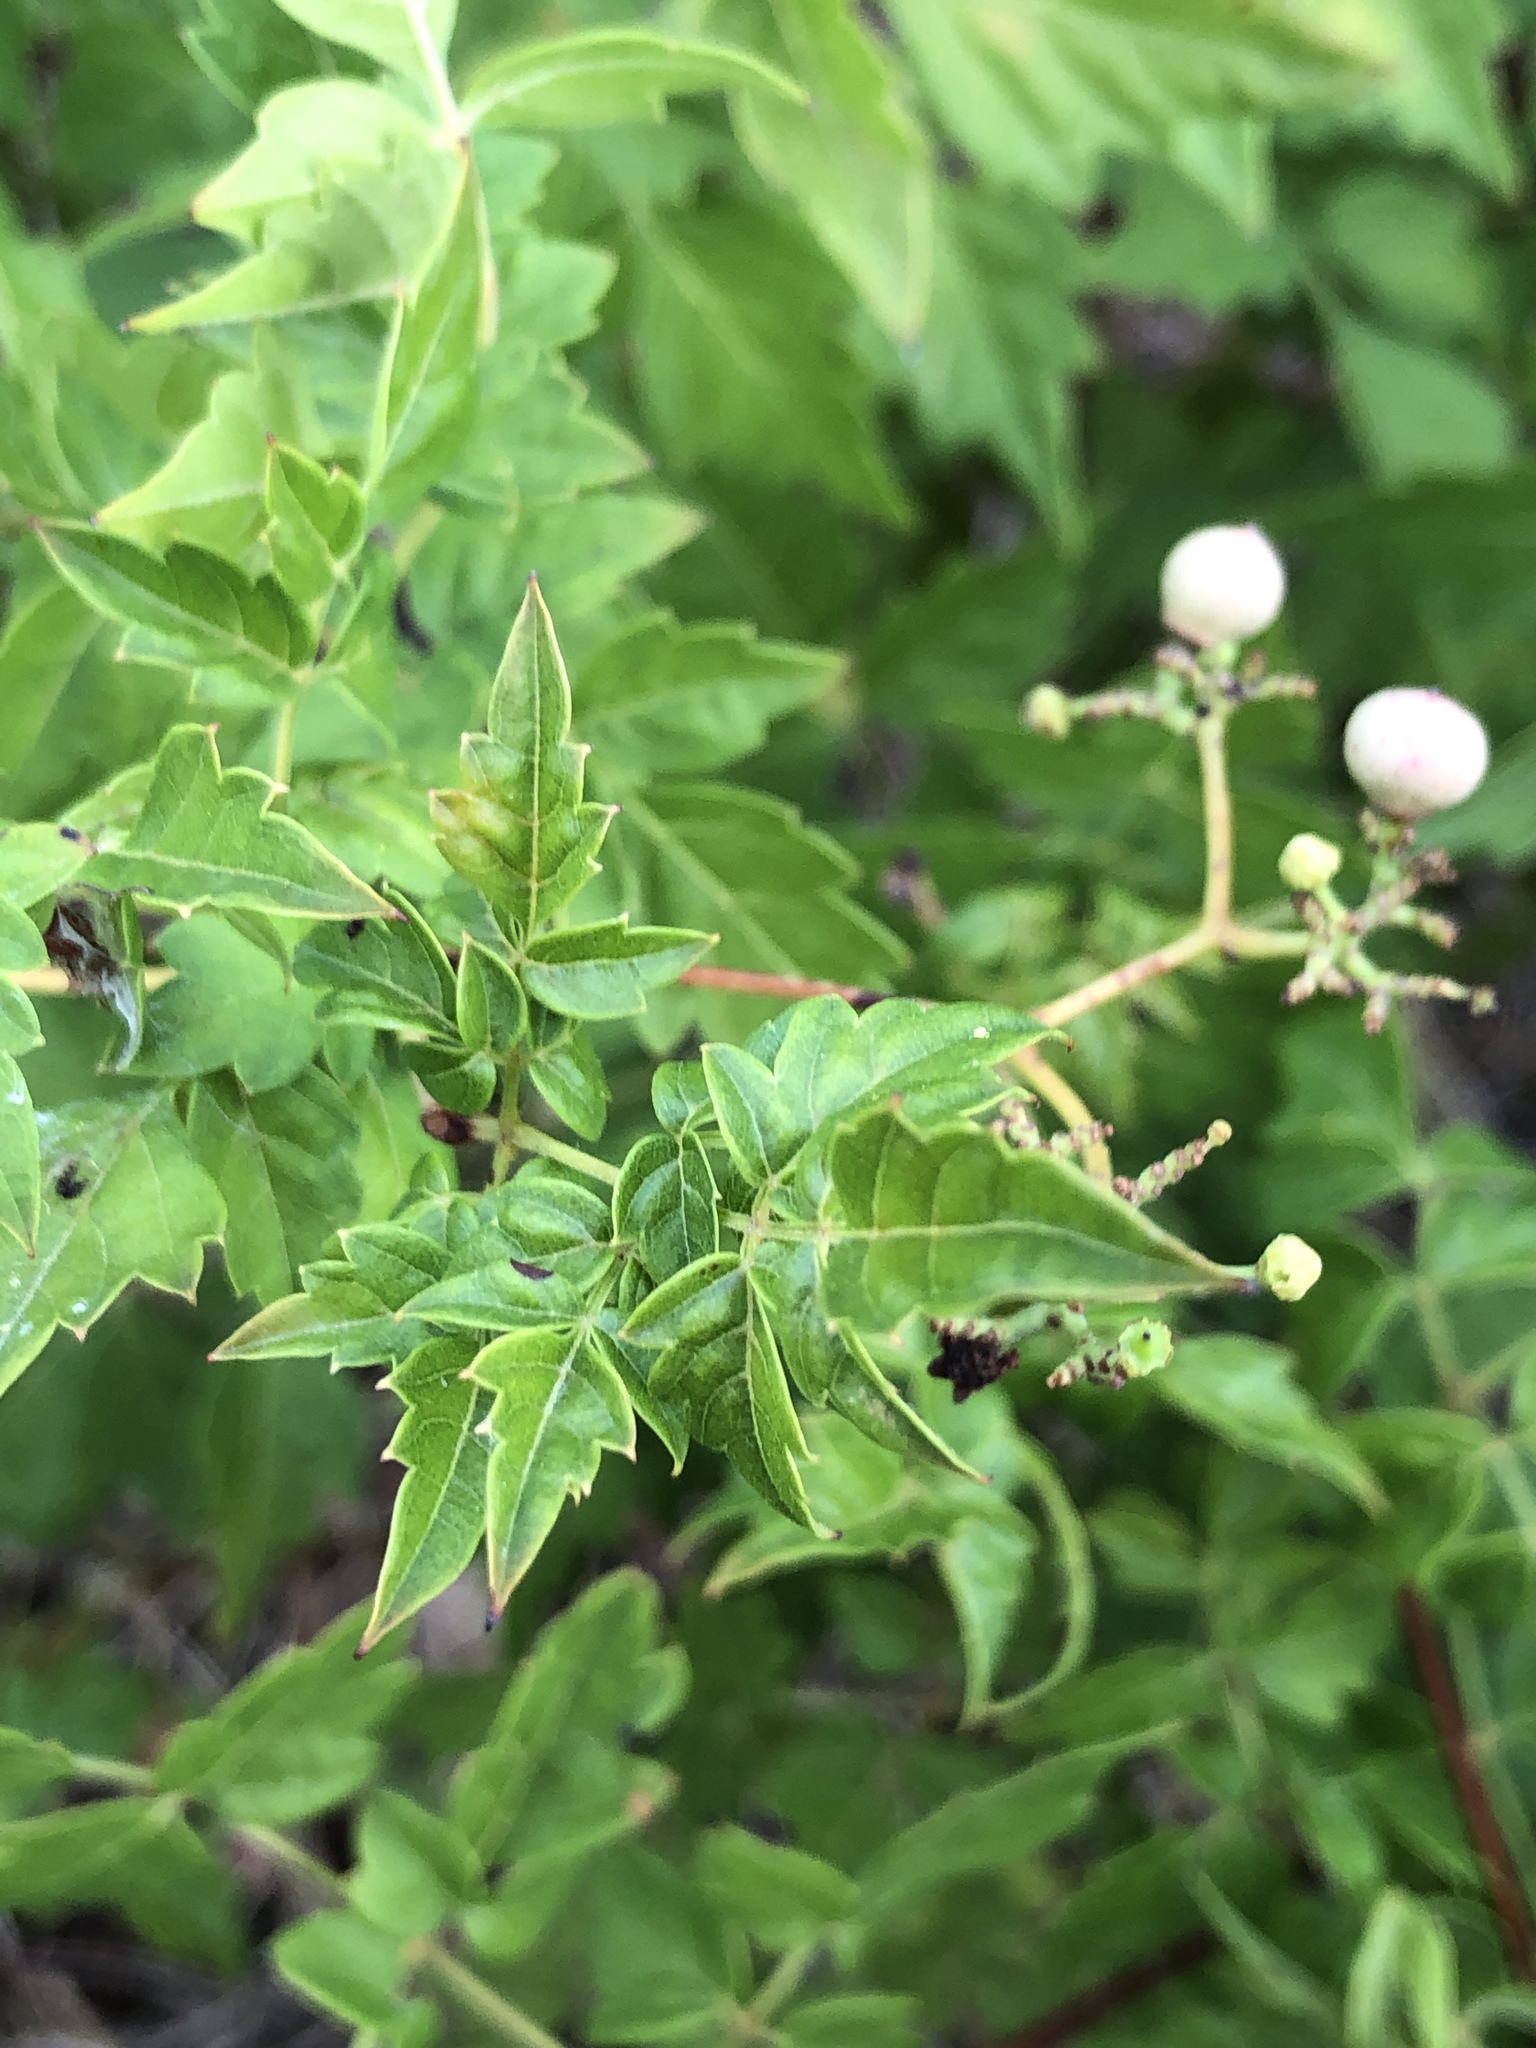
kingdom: Plantae
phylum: Tracheophyta
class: Magnoliopsida
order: Vitales
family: Vitaceae
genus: Nekemias
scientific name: Nekemias arborea
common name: Peppervine
